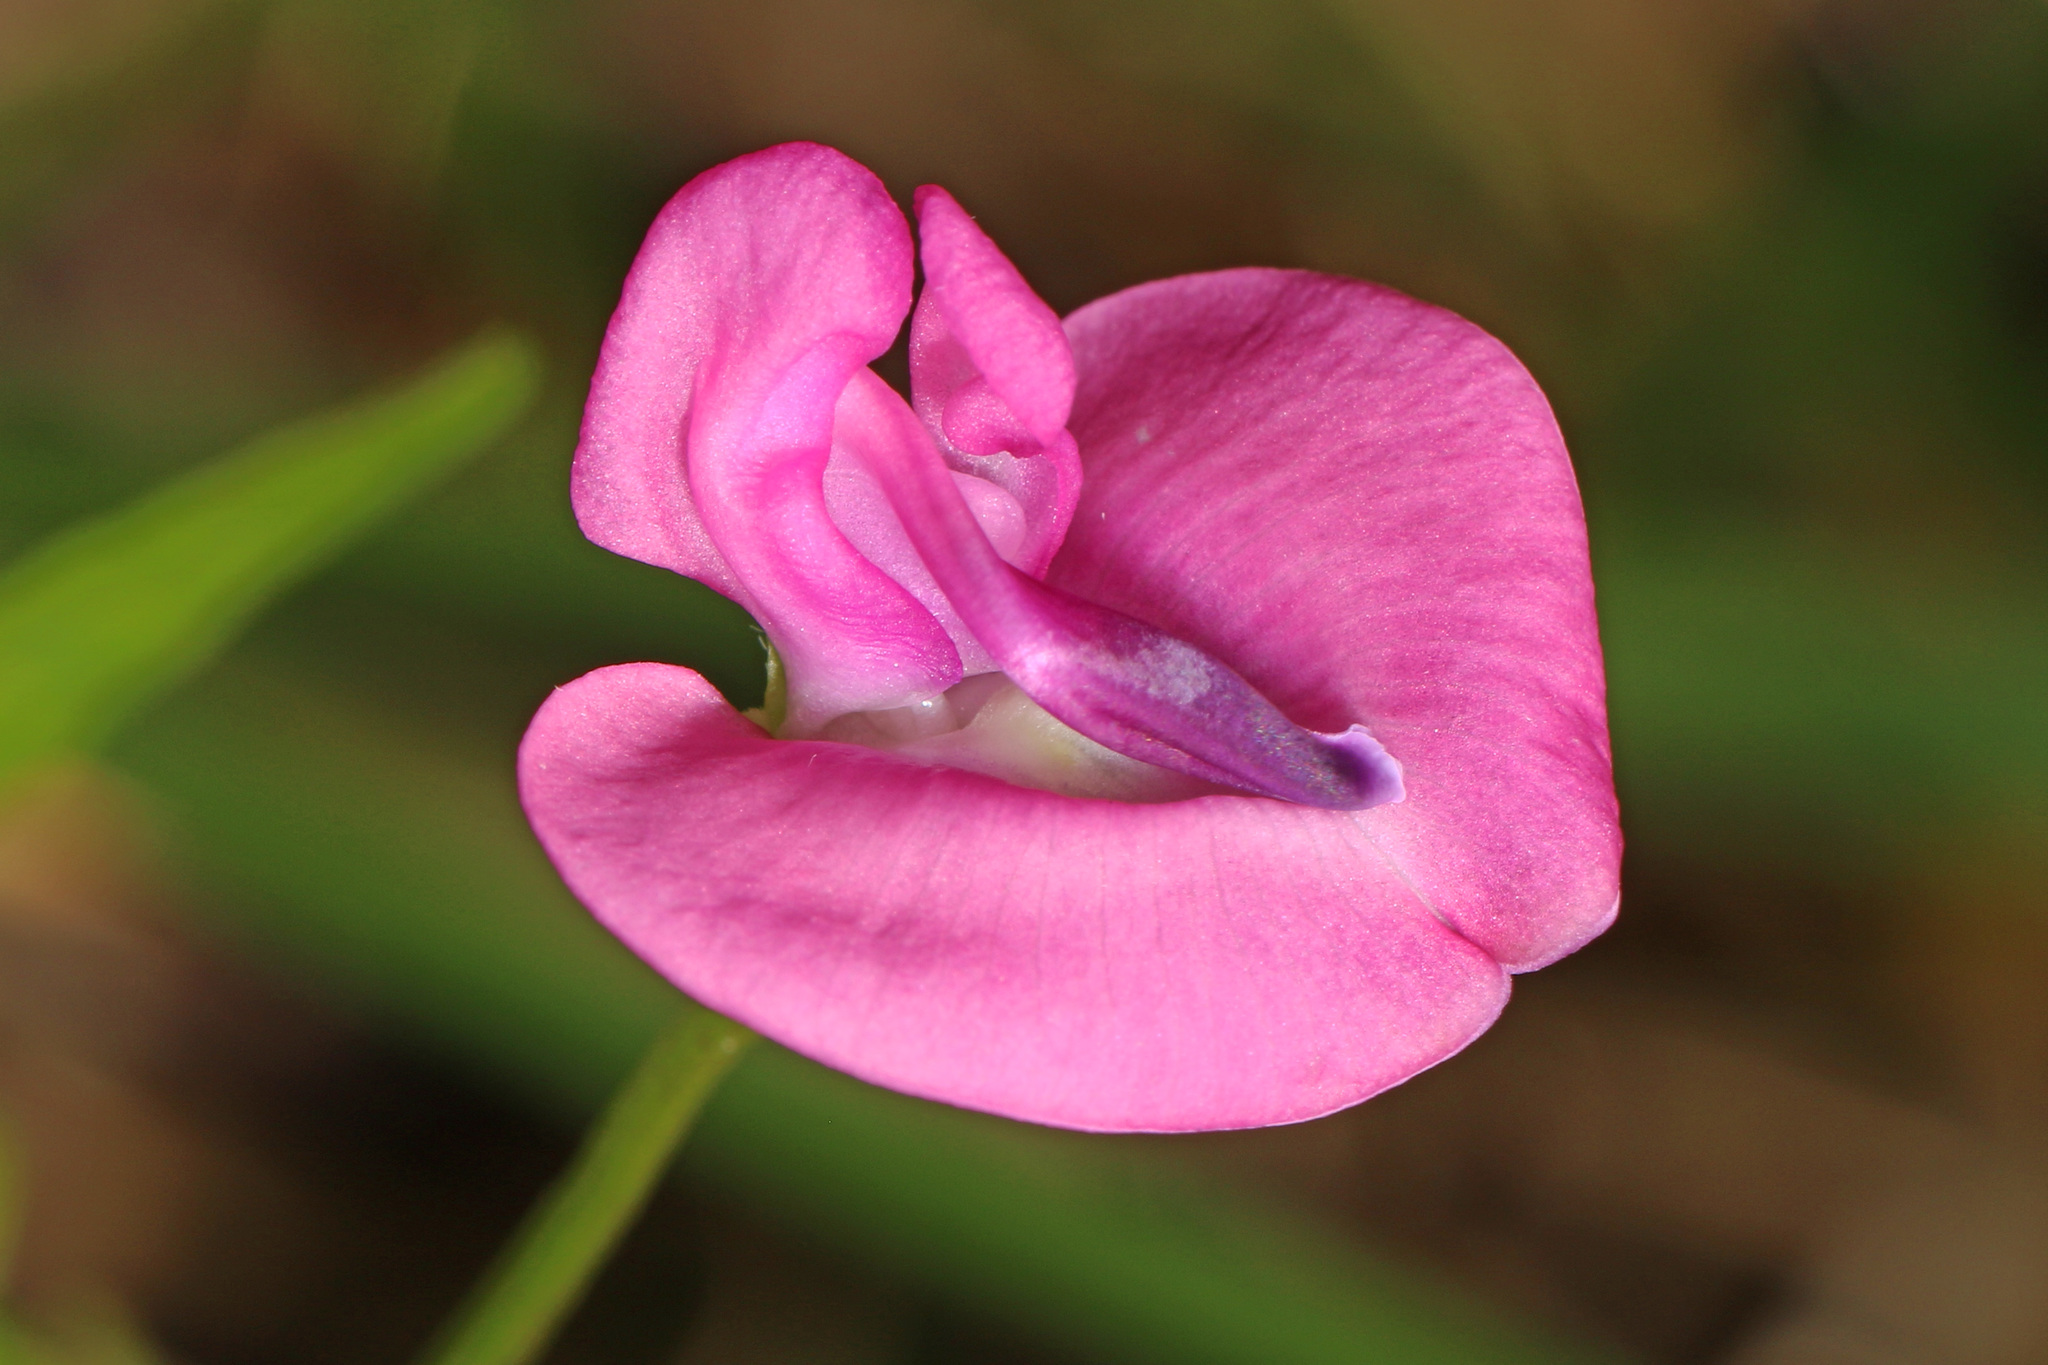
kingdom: Plantae
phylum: Tracheophyta
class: Magnoliopsida
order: Fabales
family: Fabaceae
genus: Strophostyles
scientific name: Strophostyles umbellata
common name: Perennial wild bean
